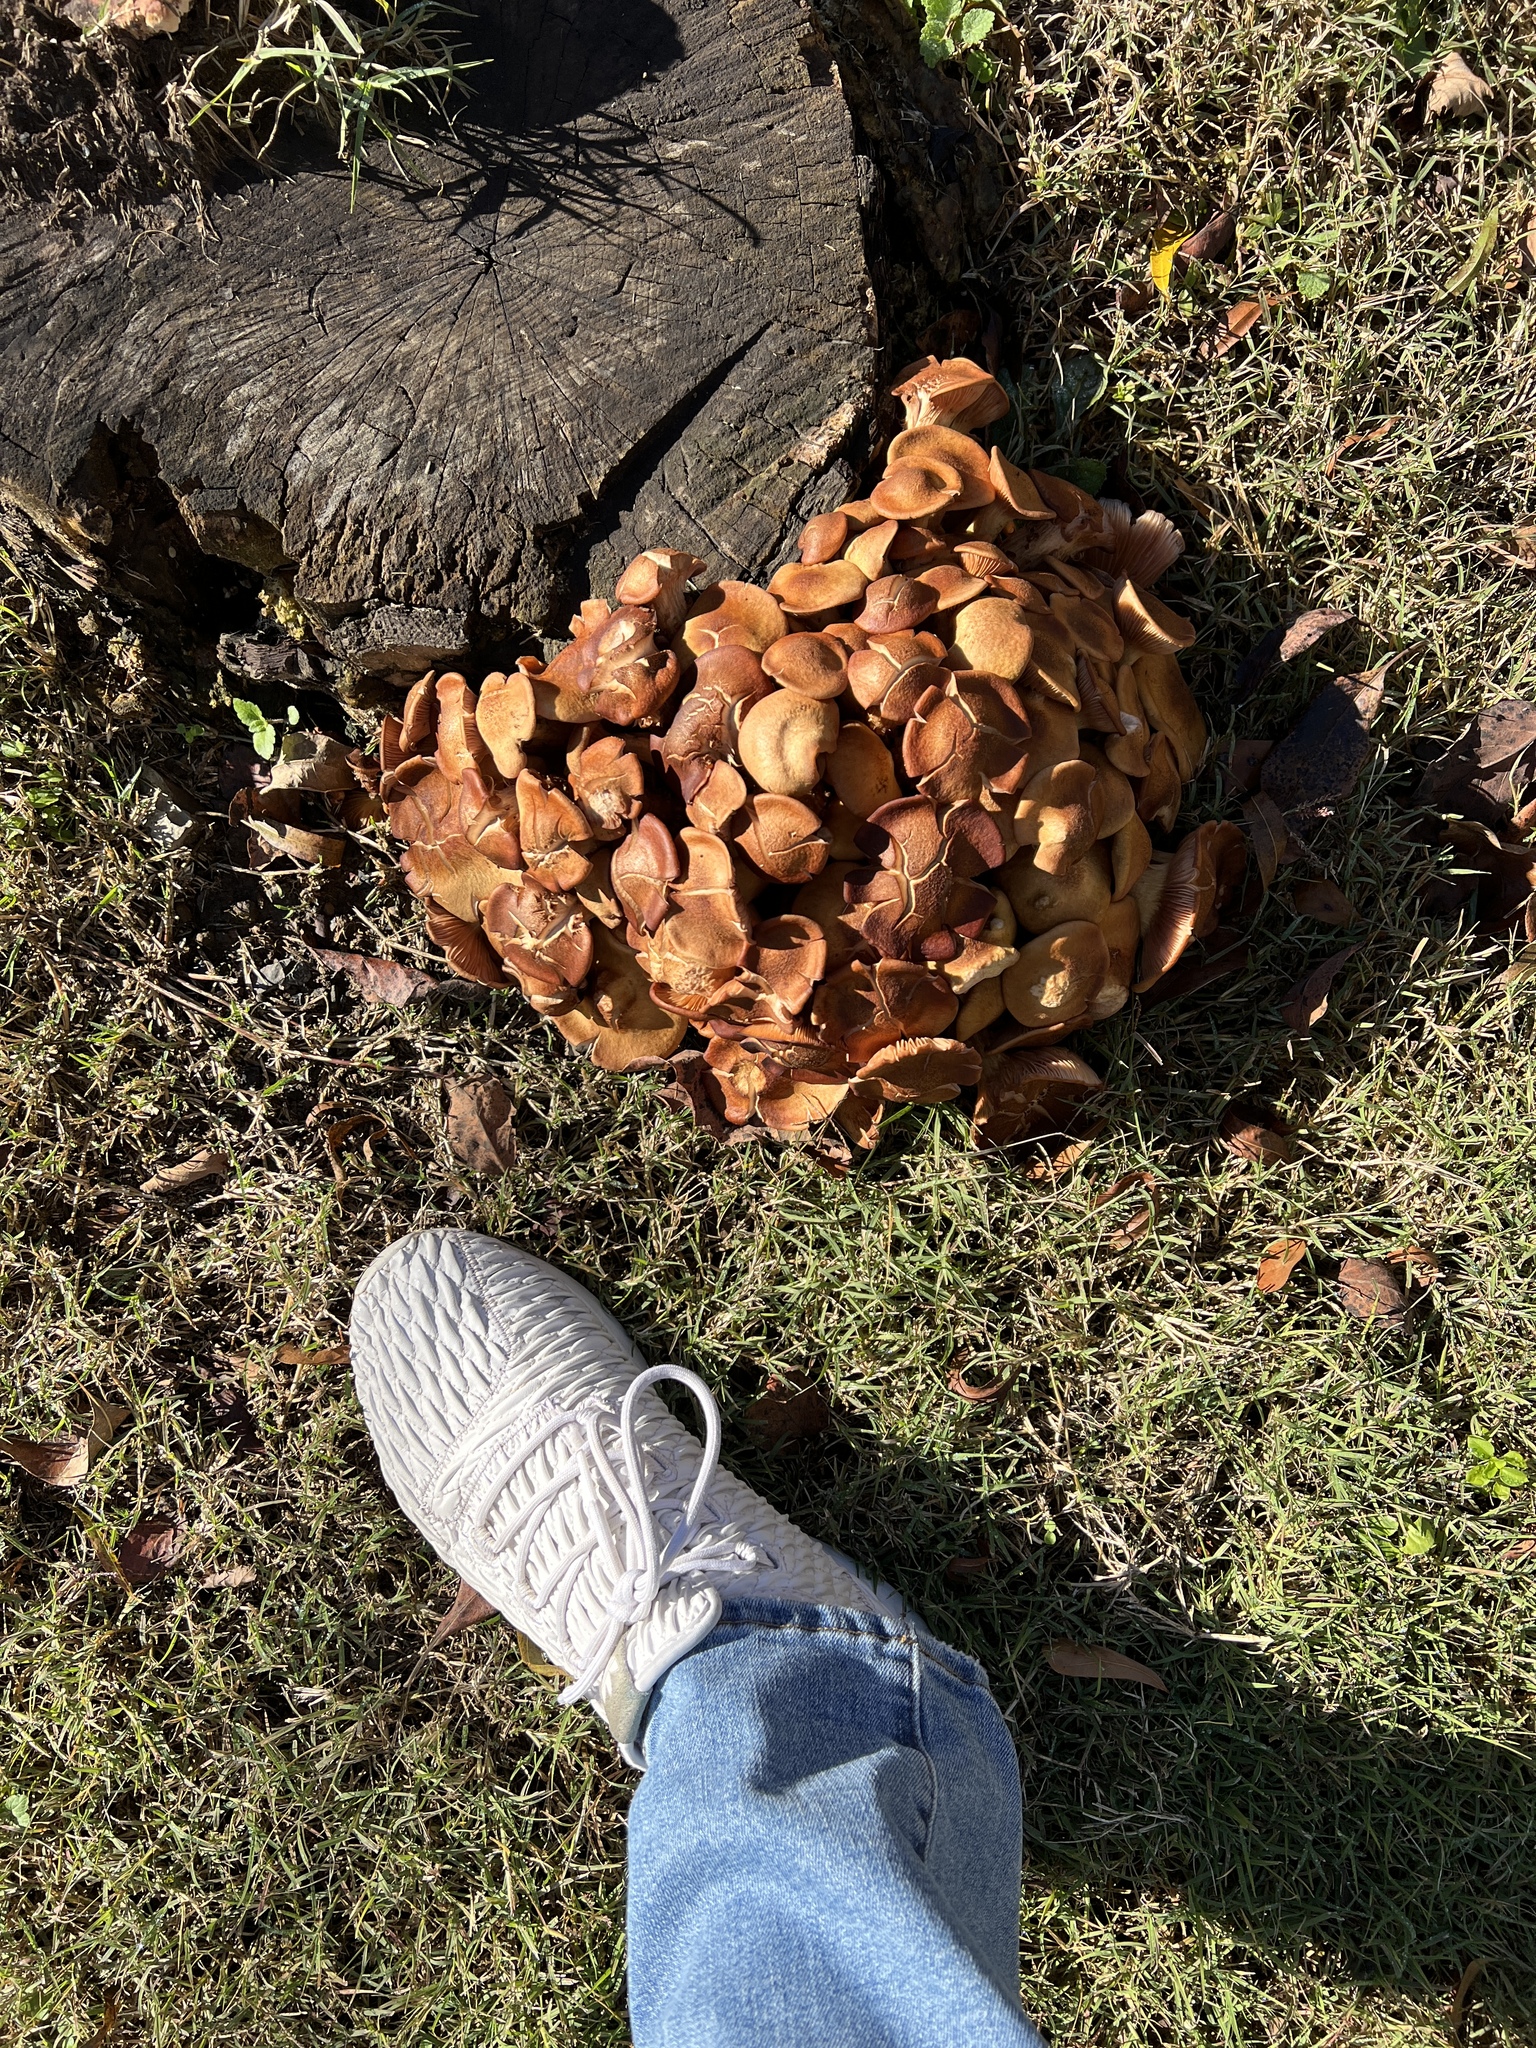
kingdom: Fungi
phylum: Basidiomycota
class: Agaricomycetes
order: Agaricales
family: Physalacriaceae
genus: Desarmillaria
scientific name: Desarmillaria caespitosa
